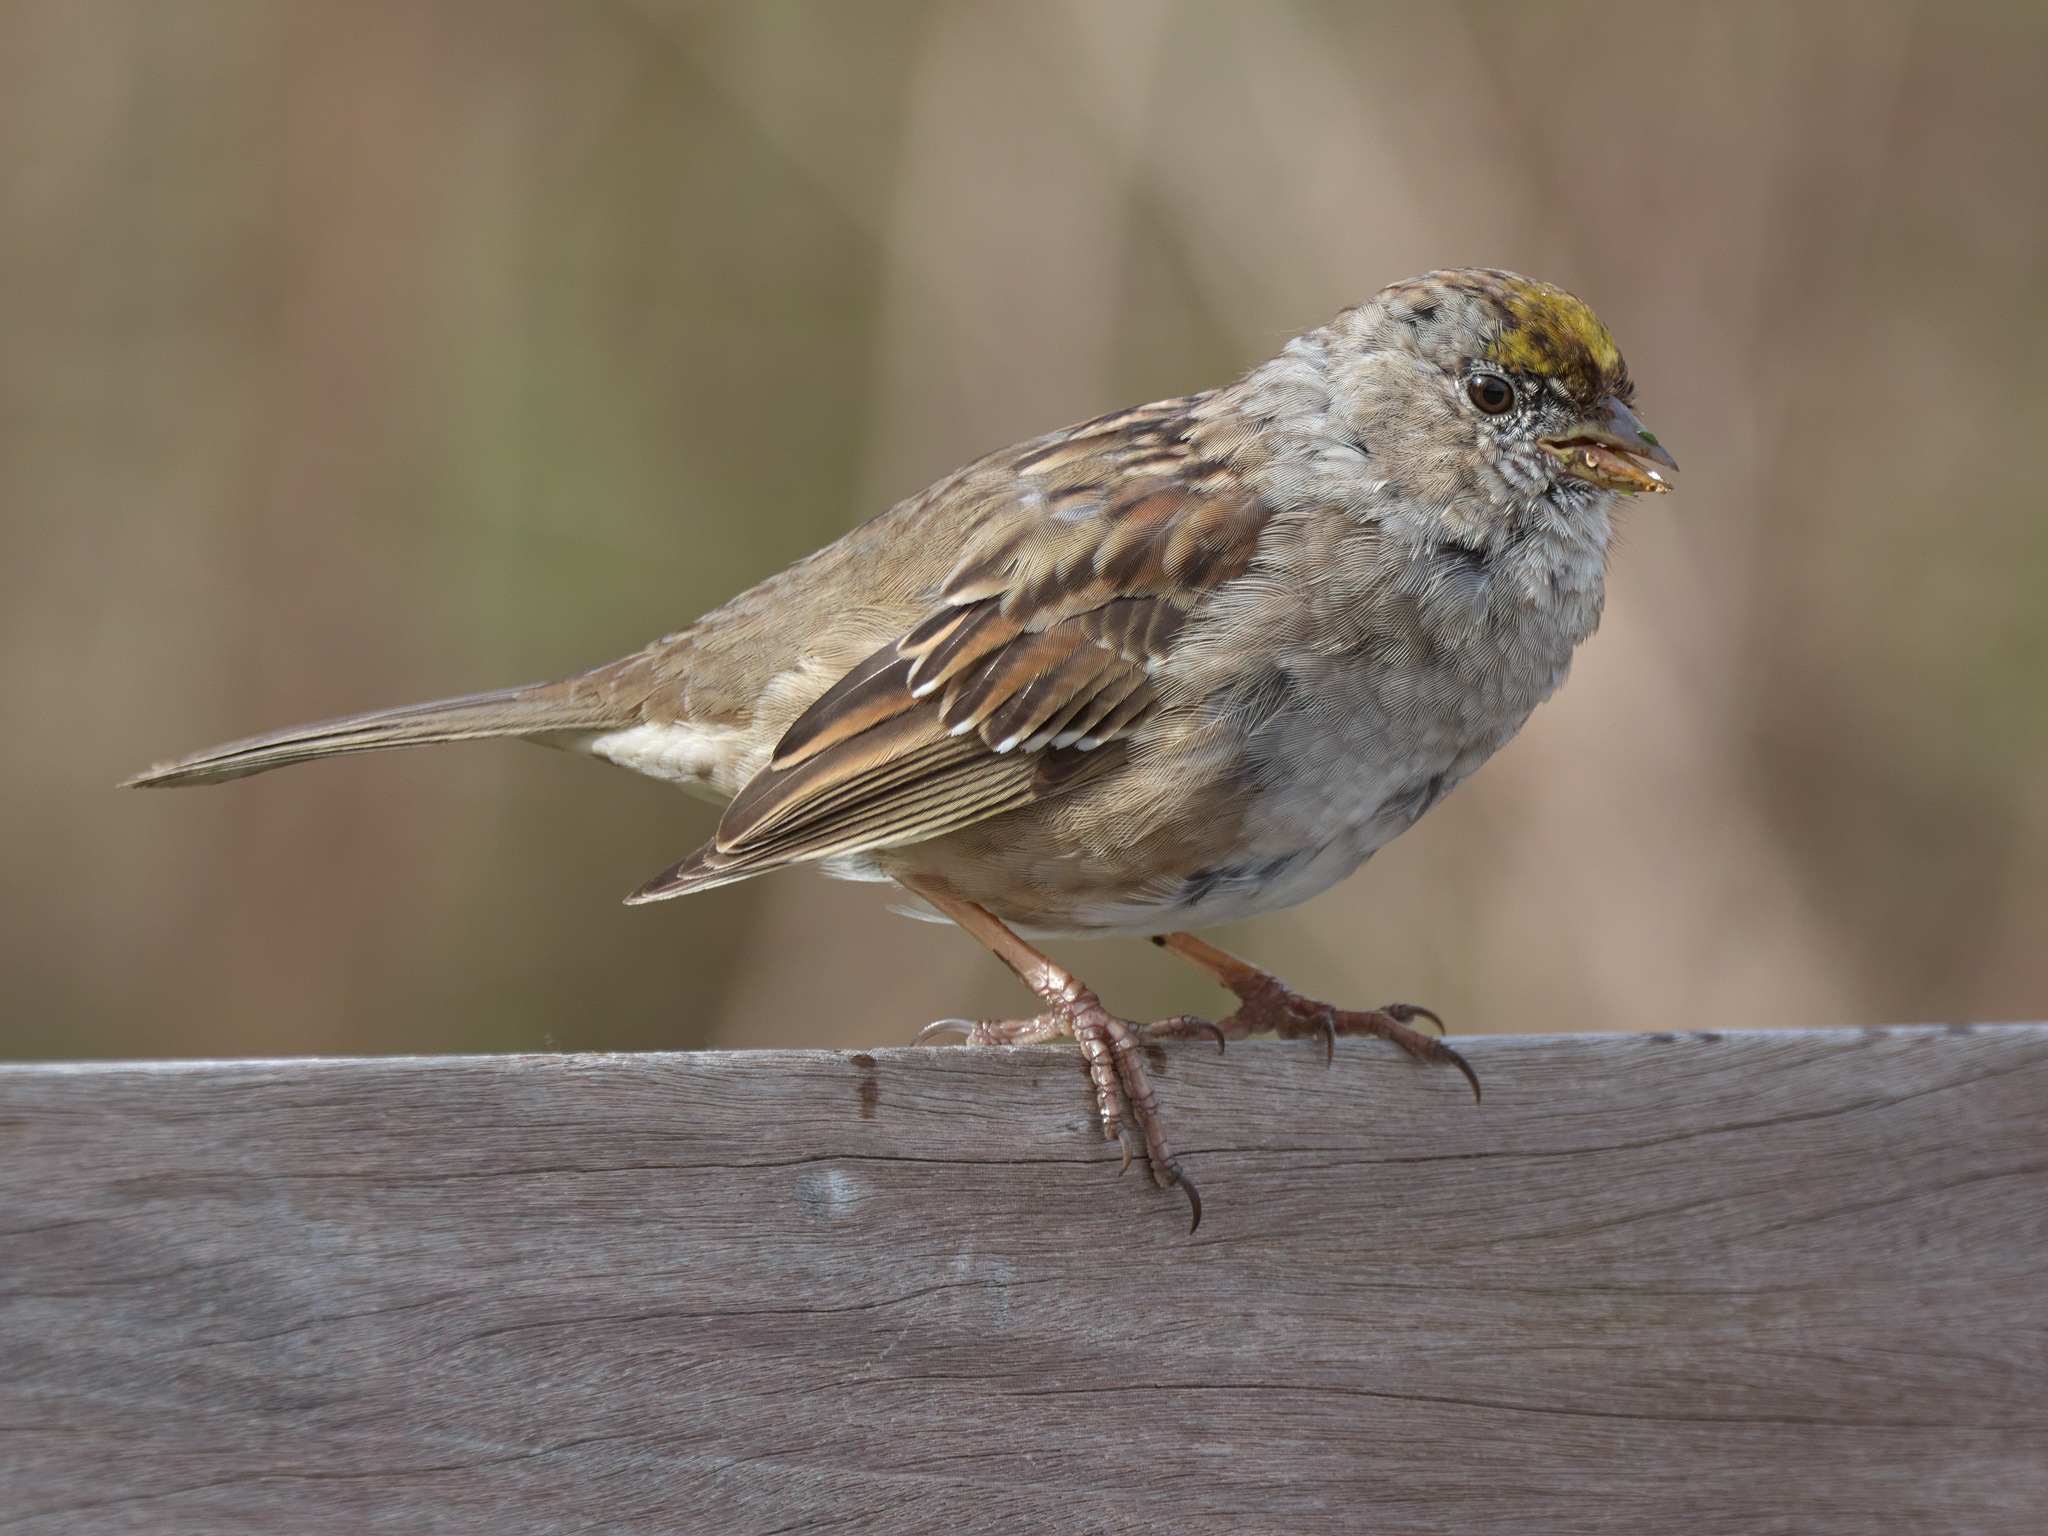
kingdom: Animalia
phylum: Chordata
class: Aves
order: Passeriformes
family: Passerellidae
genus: Zonotrichia
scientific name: Zonotrichia atricapilla
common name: Golden-crowned sparrow
